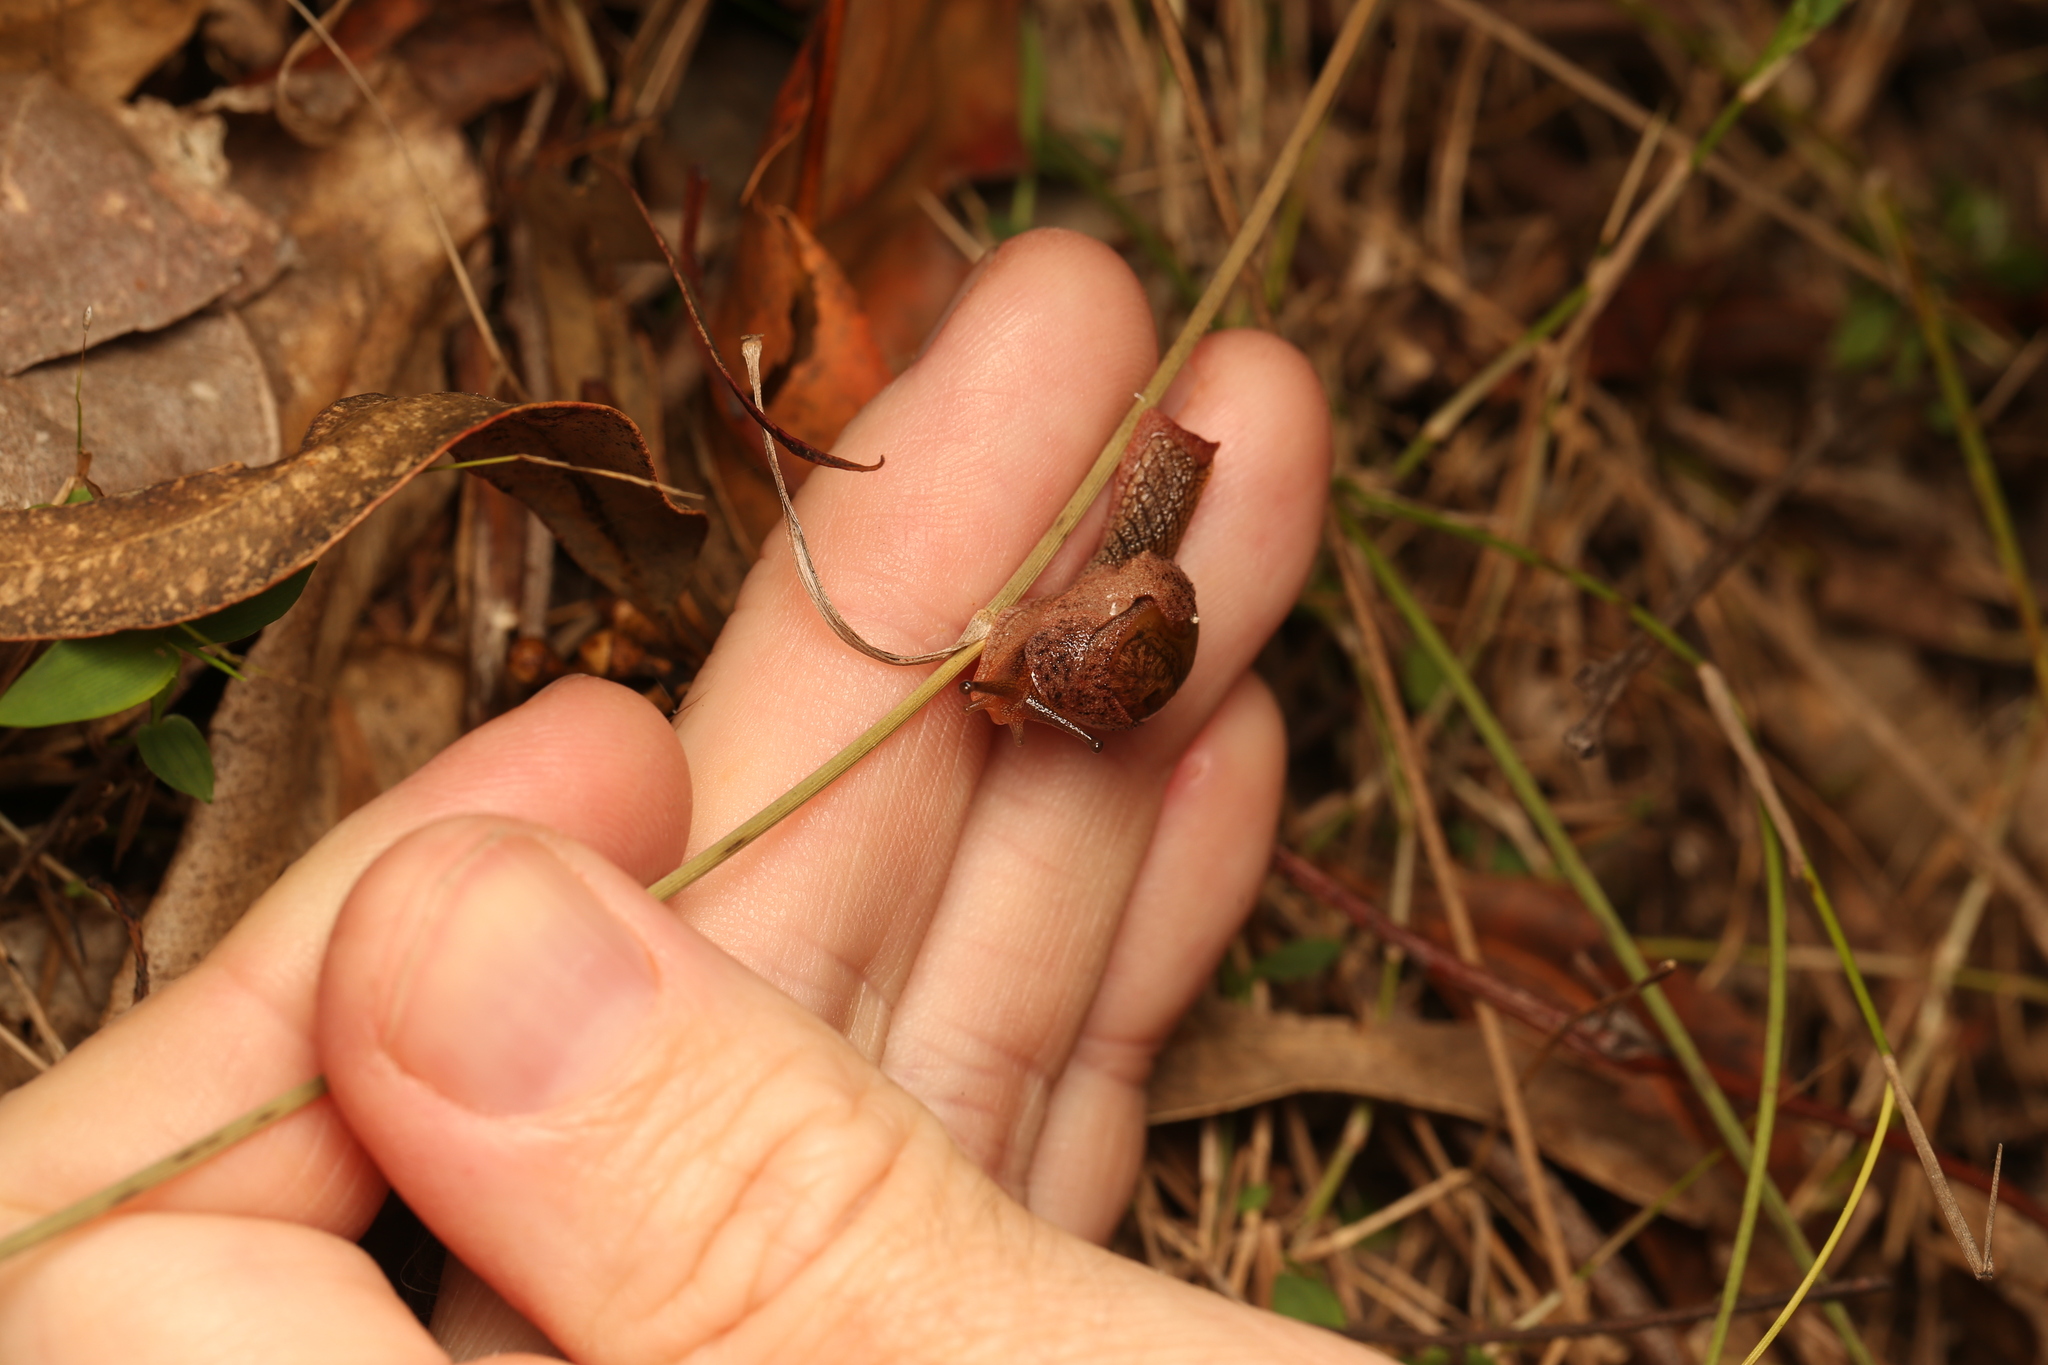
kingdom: Animalia
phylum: Mollusca
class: Gastropoda
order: Stylommatophora
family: Helicarionidae
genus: Stanisicarion
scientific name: Stanisicarion freycineti
